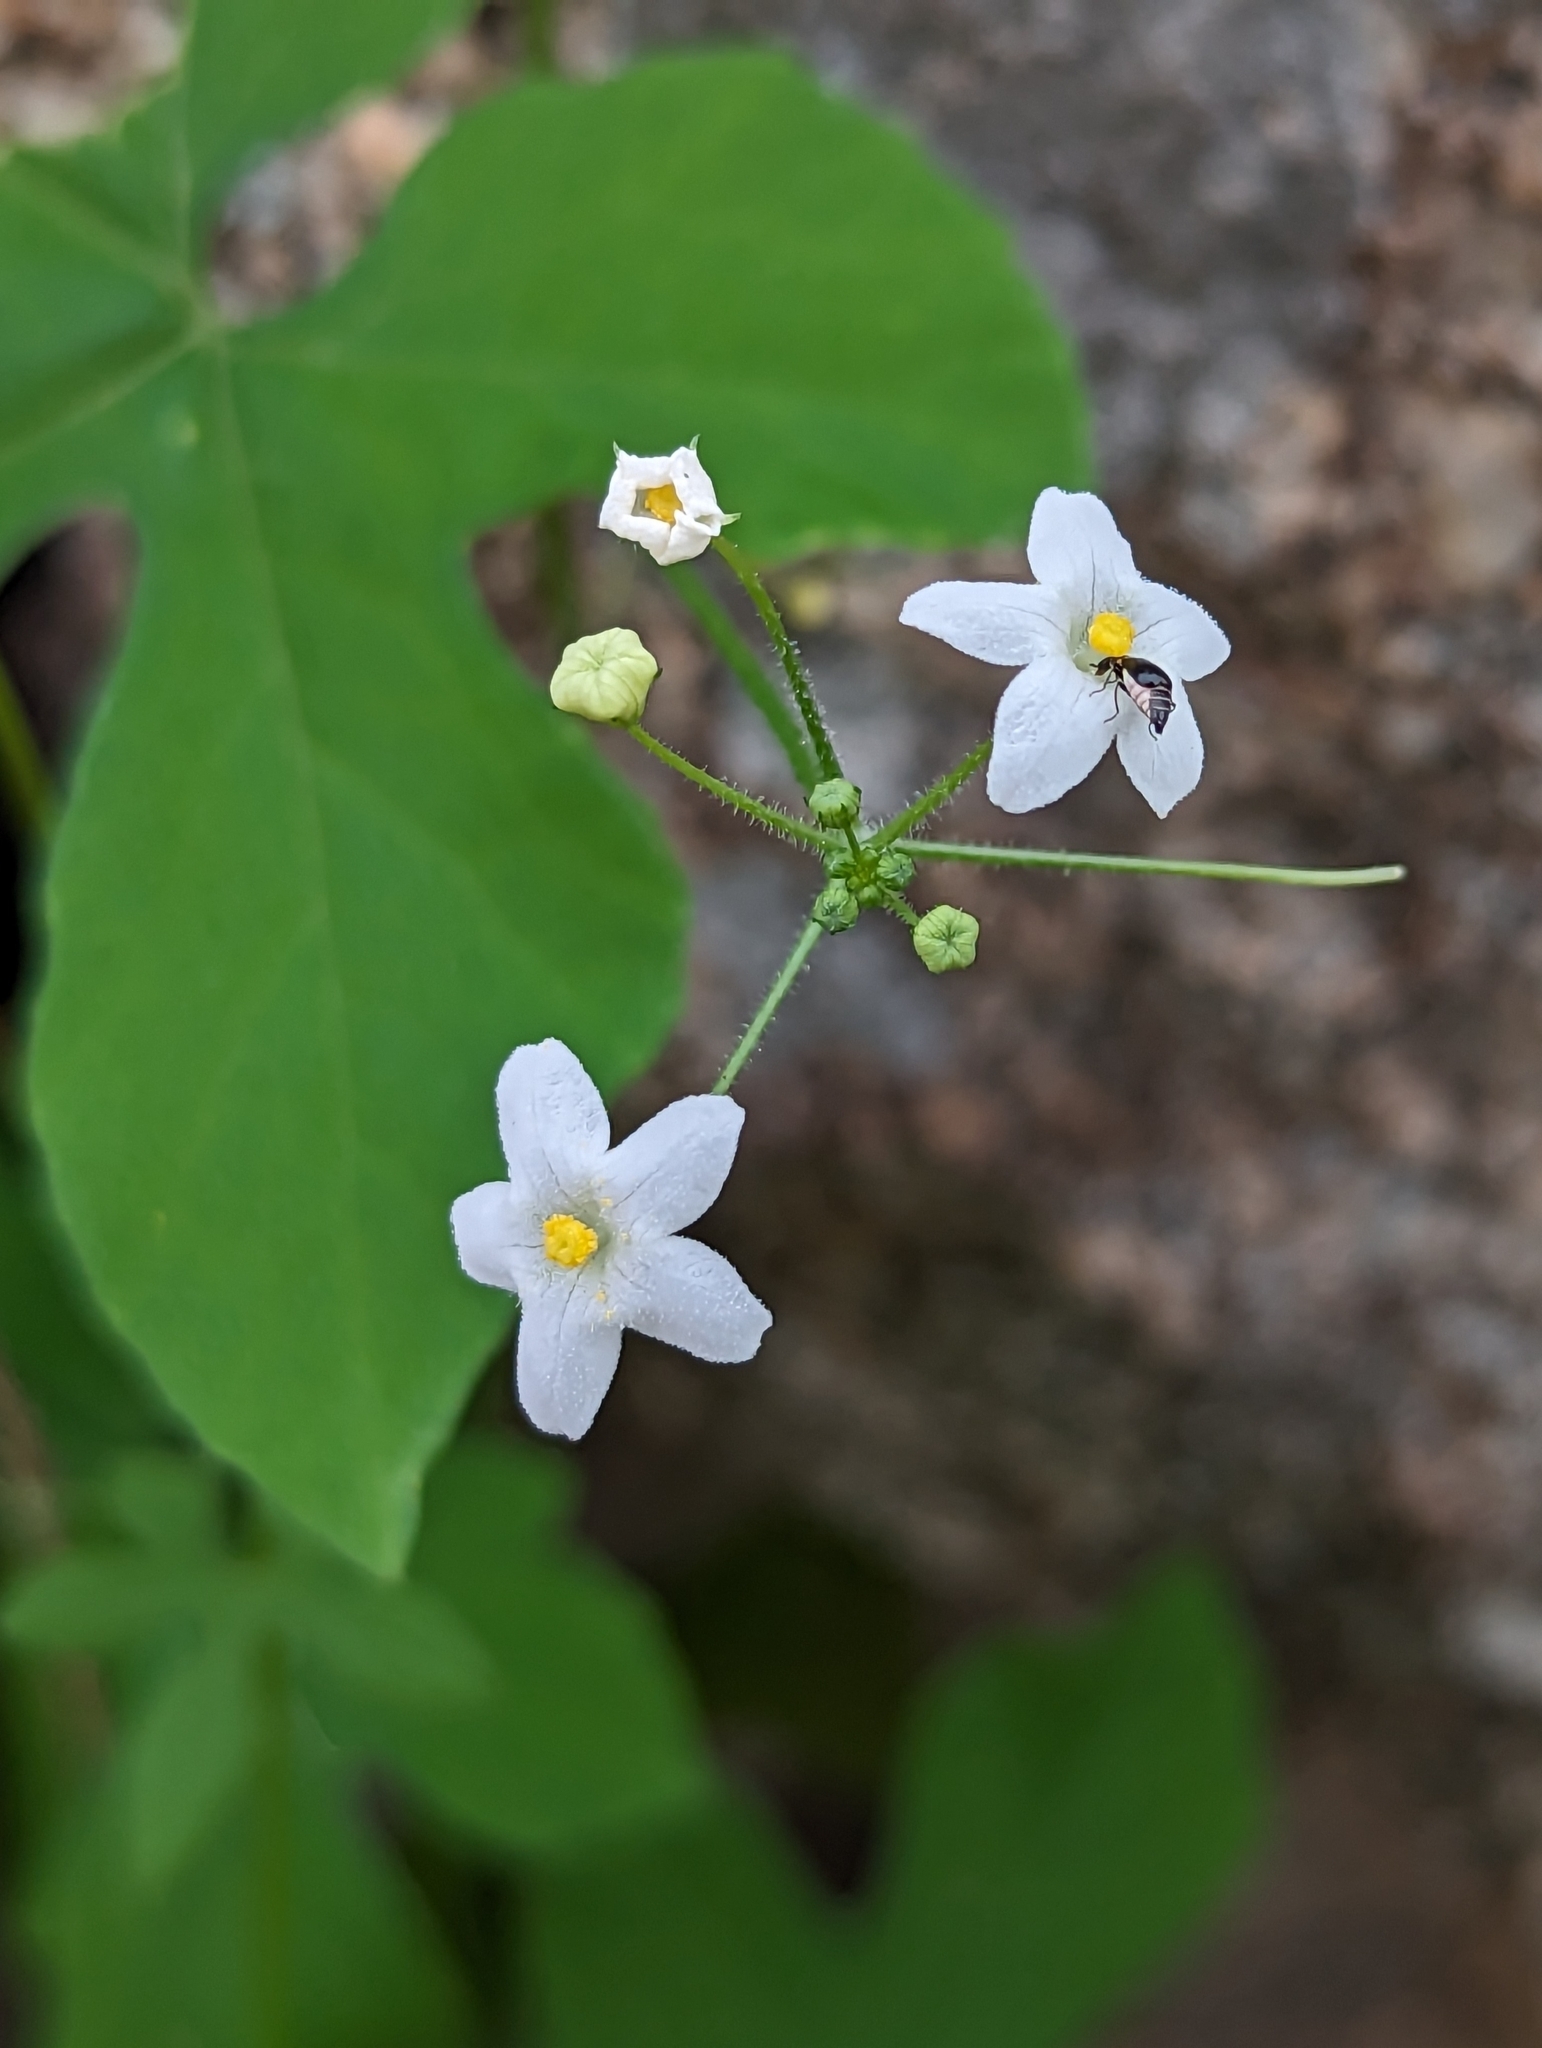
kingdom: Plantae
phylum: Tracheophyta
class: Magnoliopsida
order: Cucurbitales
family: Cucurbitaceae
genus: Echinopepon
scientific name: Echinopepon minimus
